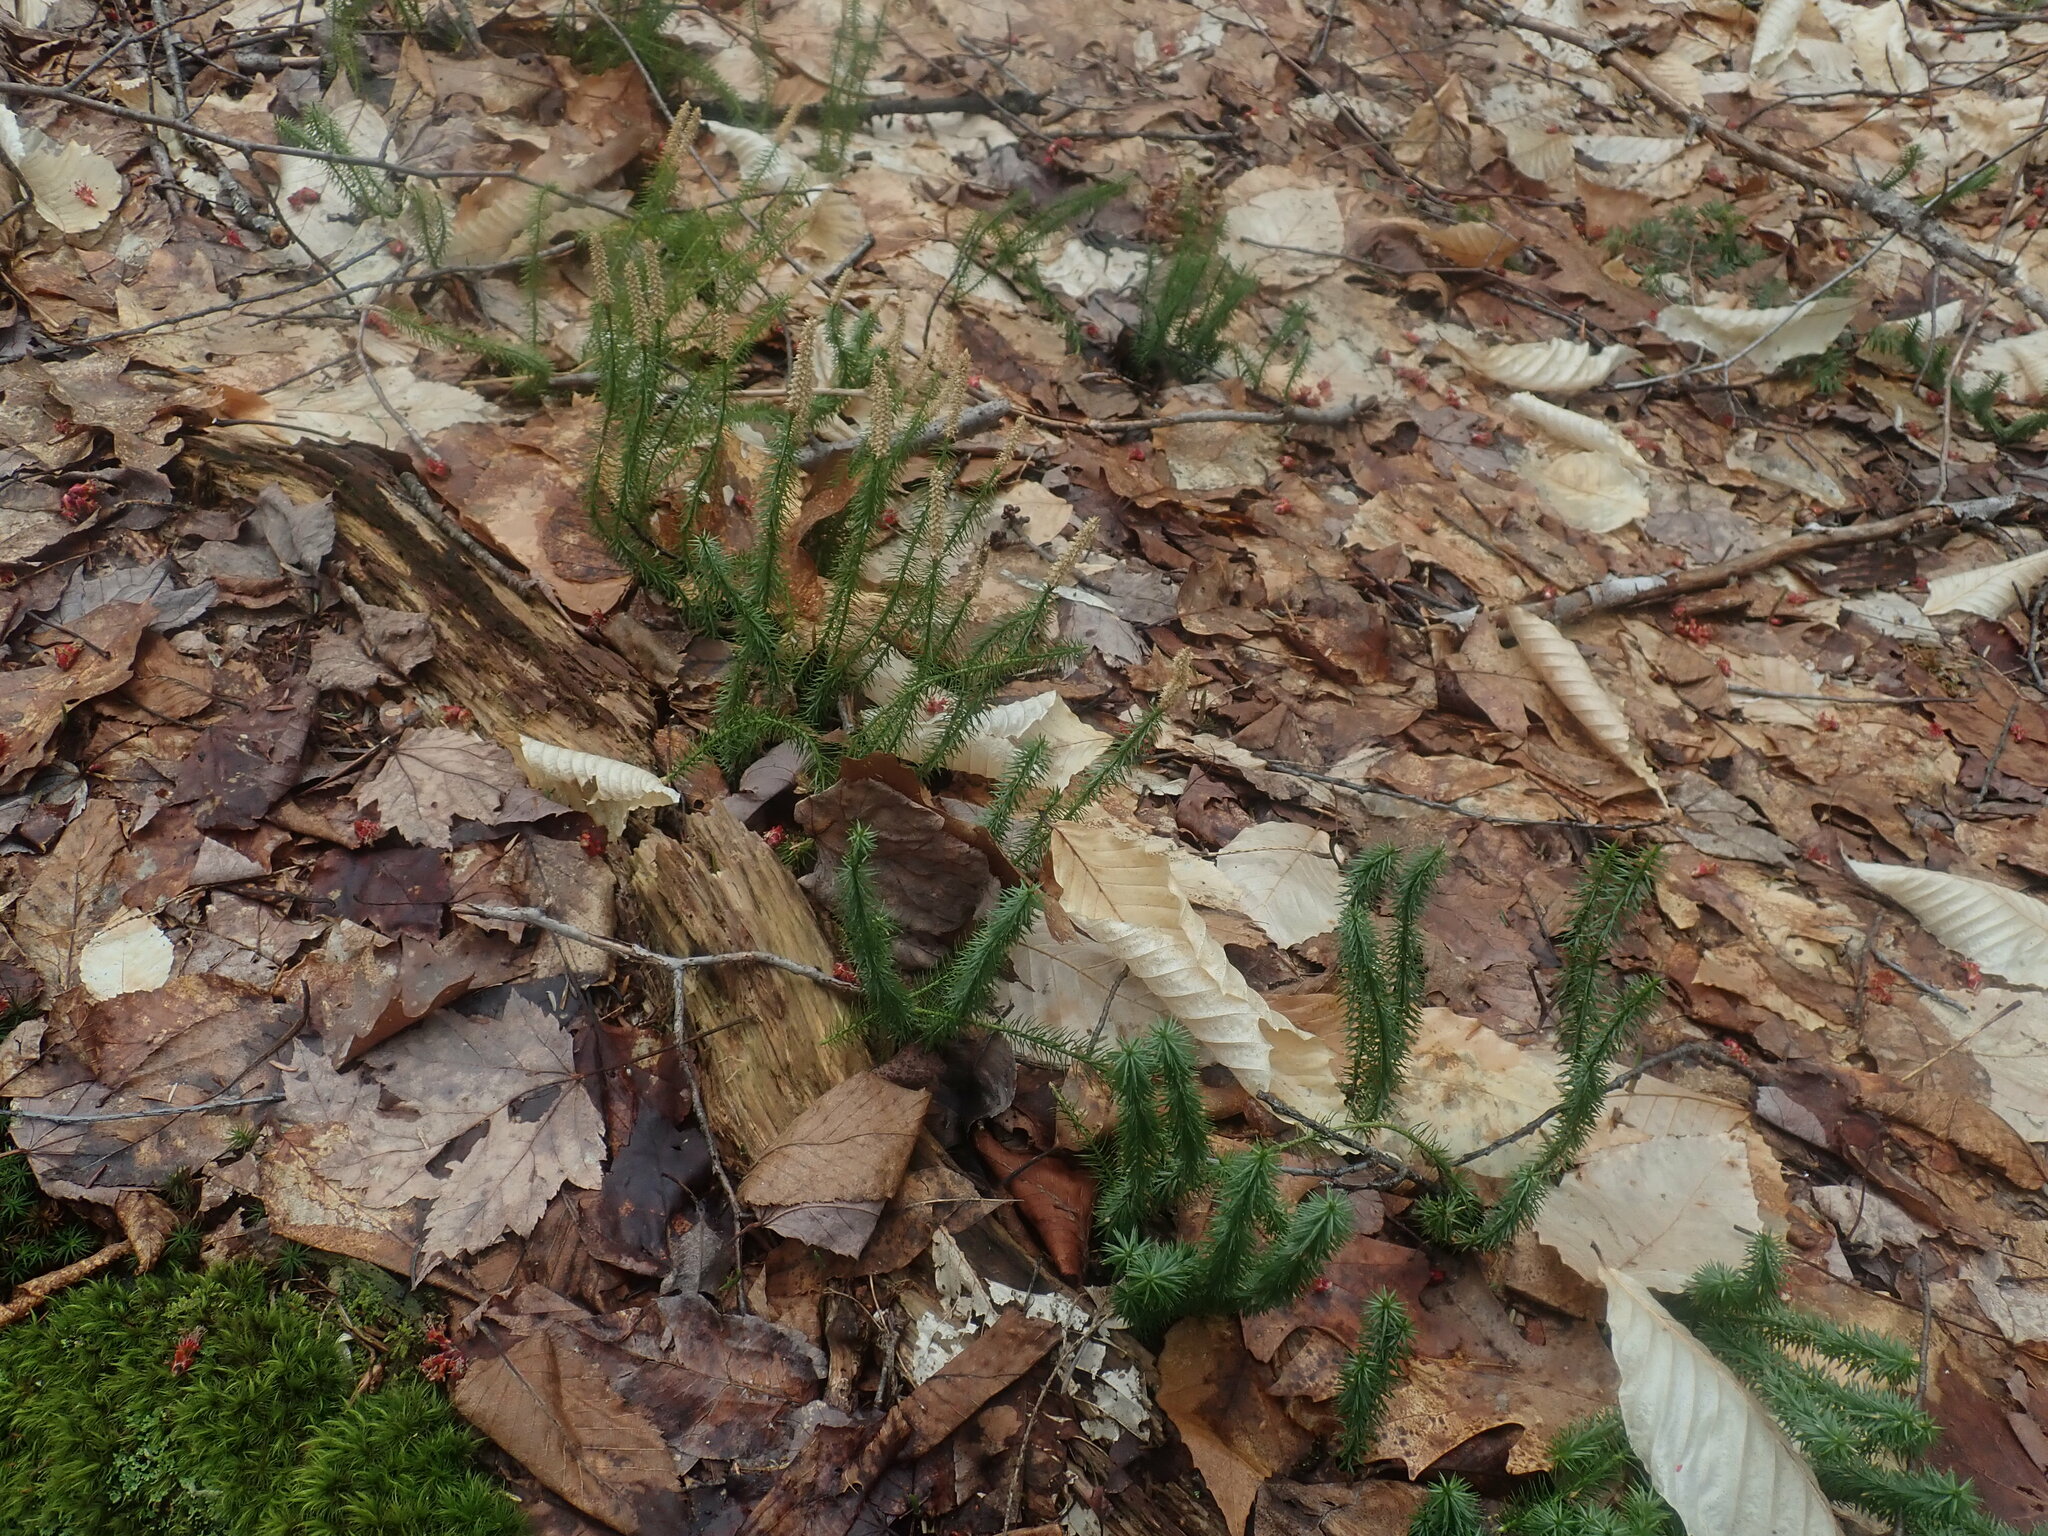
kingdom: Plantae
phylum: Tracheophyta
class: Lycopodiopsida
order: Lycopodiales
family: Lycopodiaceae
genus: Spinulum
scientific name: Spinulum annotinum
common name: Interrupted club-moss
